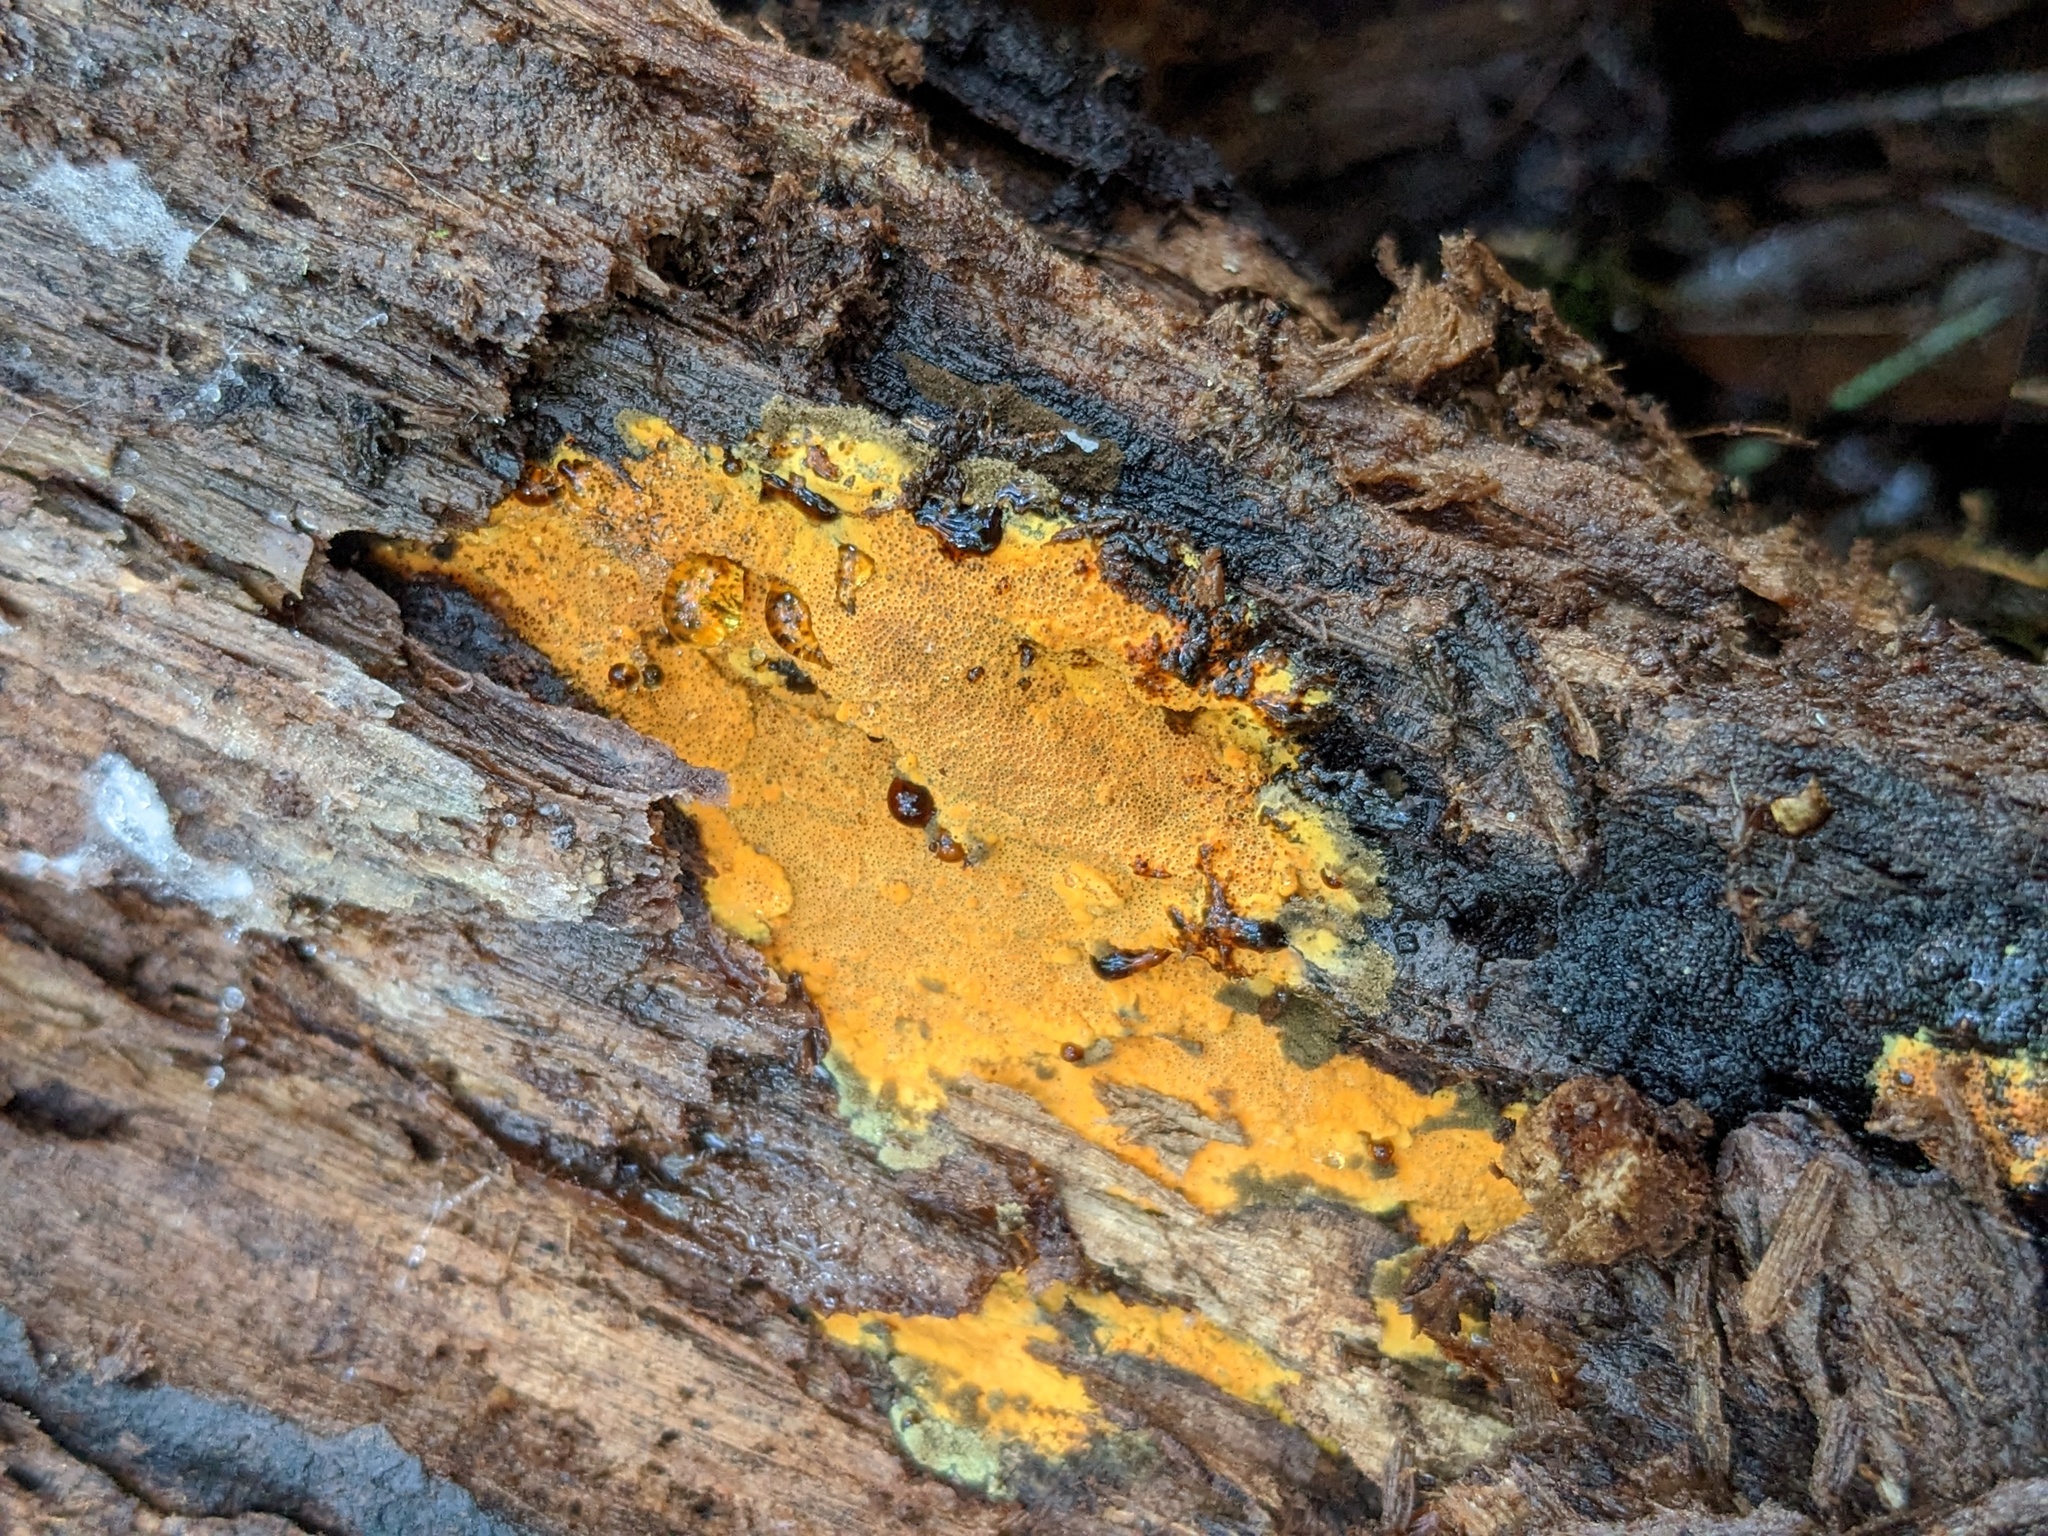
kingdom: Fungi
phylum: Basidiomycota
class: Agaricomycetes
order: Polyporales
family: Irpicaceae
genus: Ceriporia
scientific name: Ceriporia spissa
